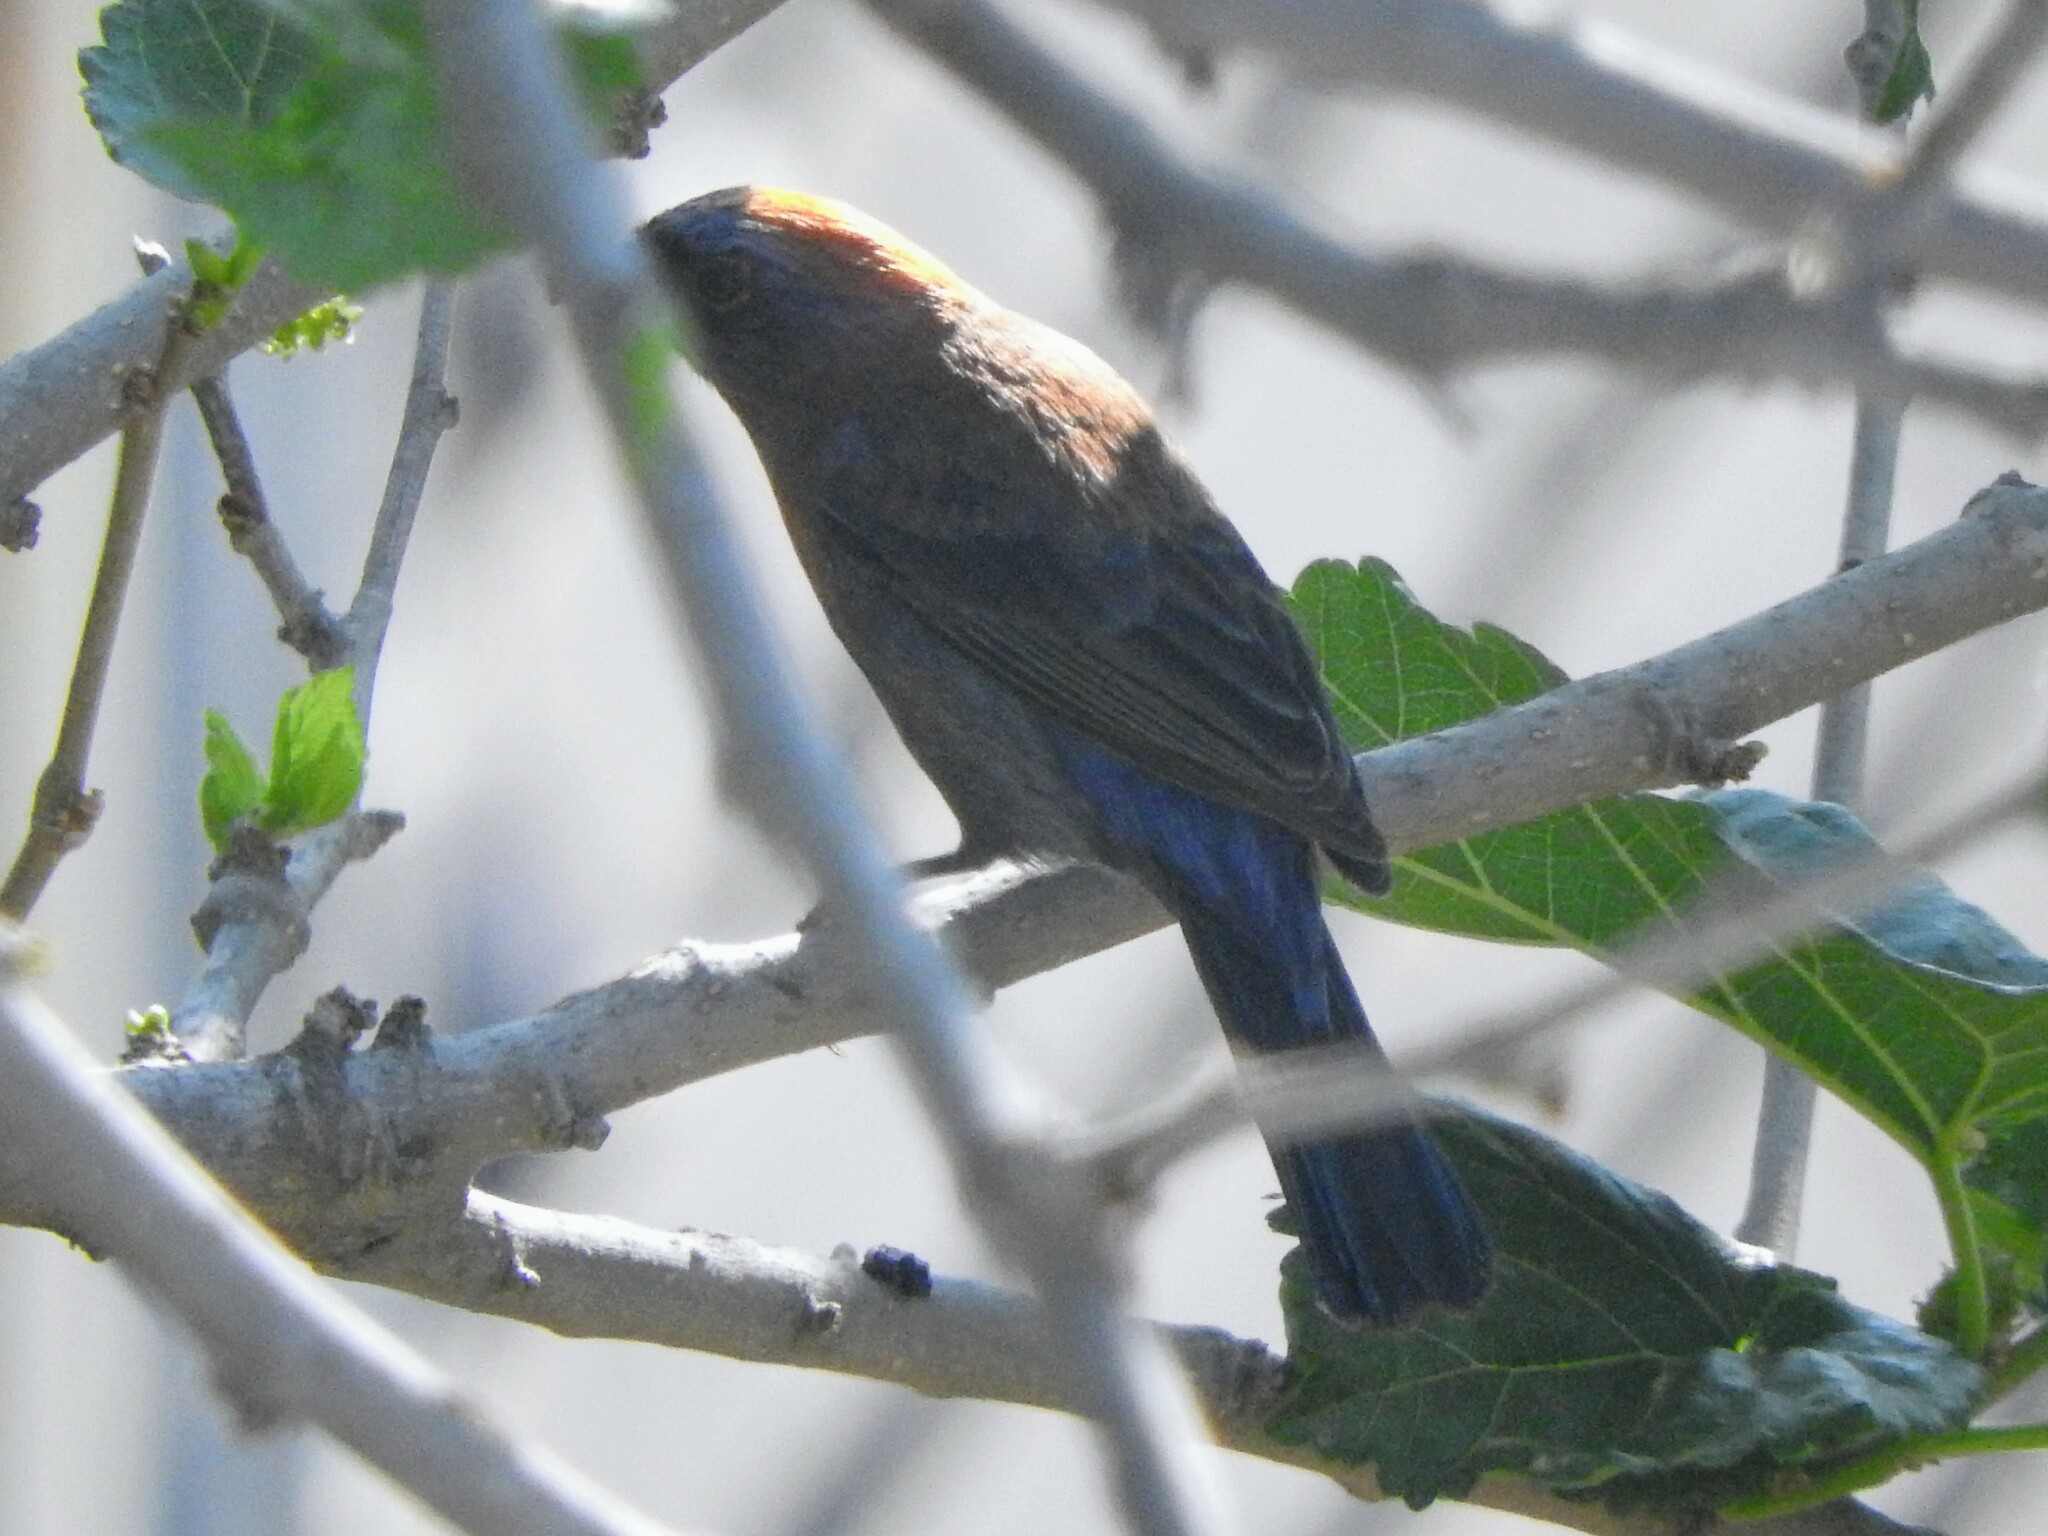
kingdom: Animalia
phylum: Chordata
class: Aves
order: Passeriformes
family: Cardinalidae
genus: Passerina
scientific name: Passerina versicolor
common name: Varied bunting
